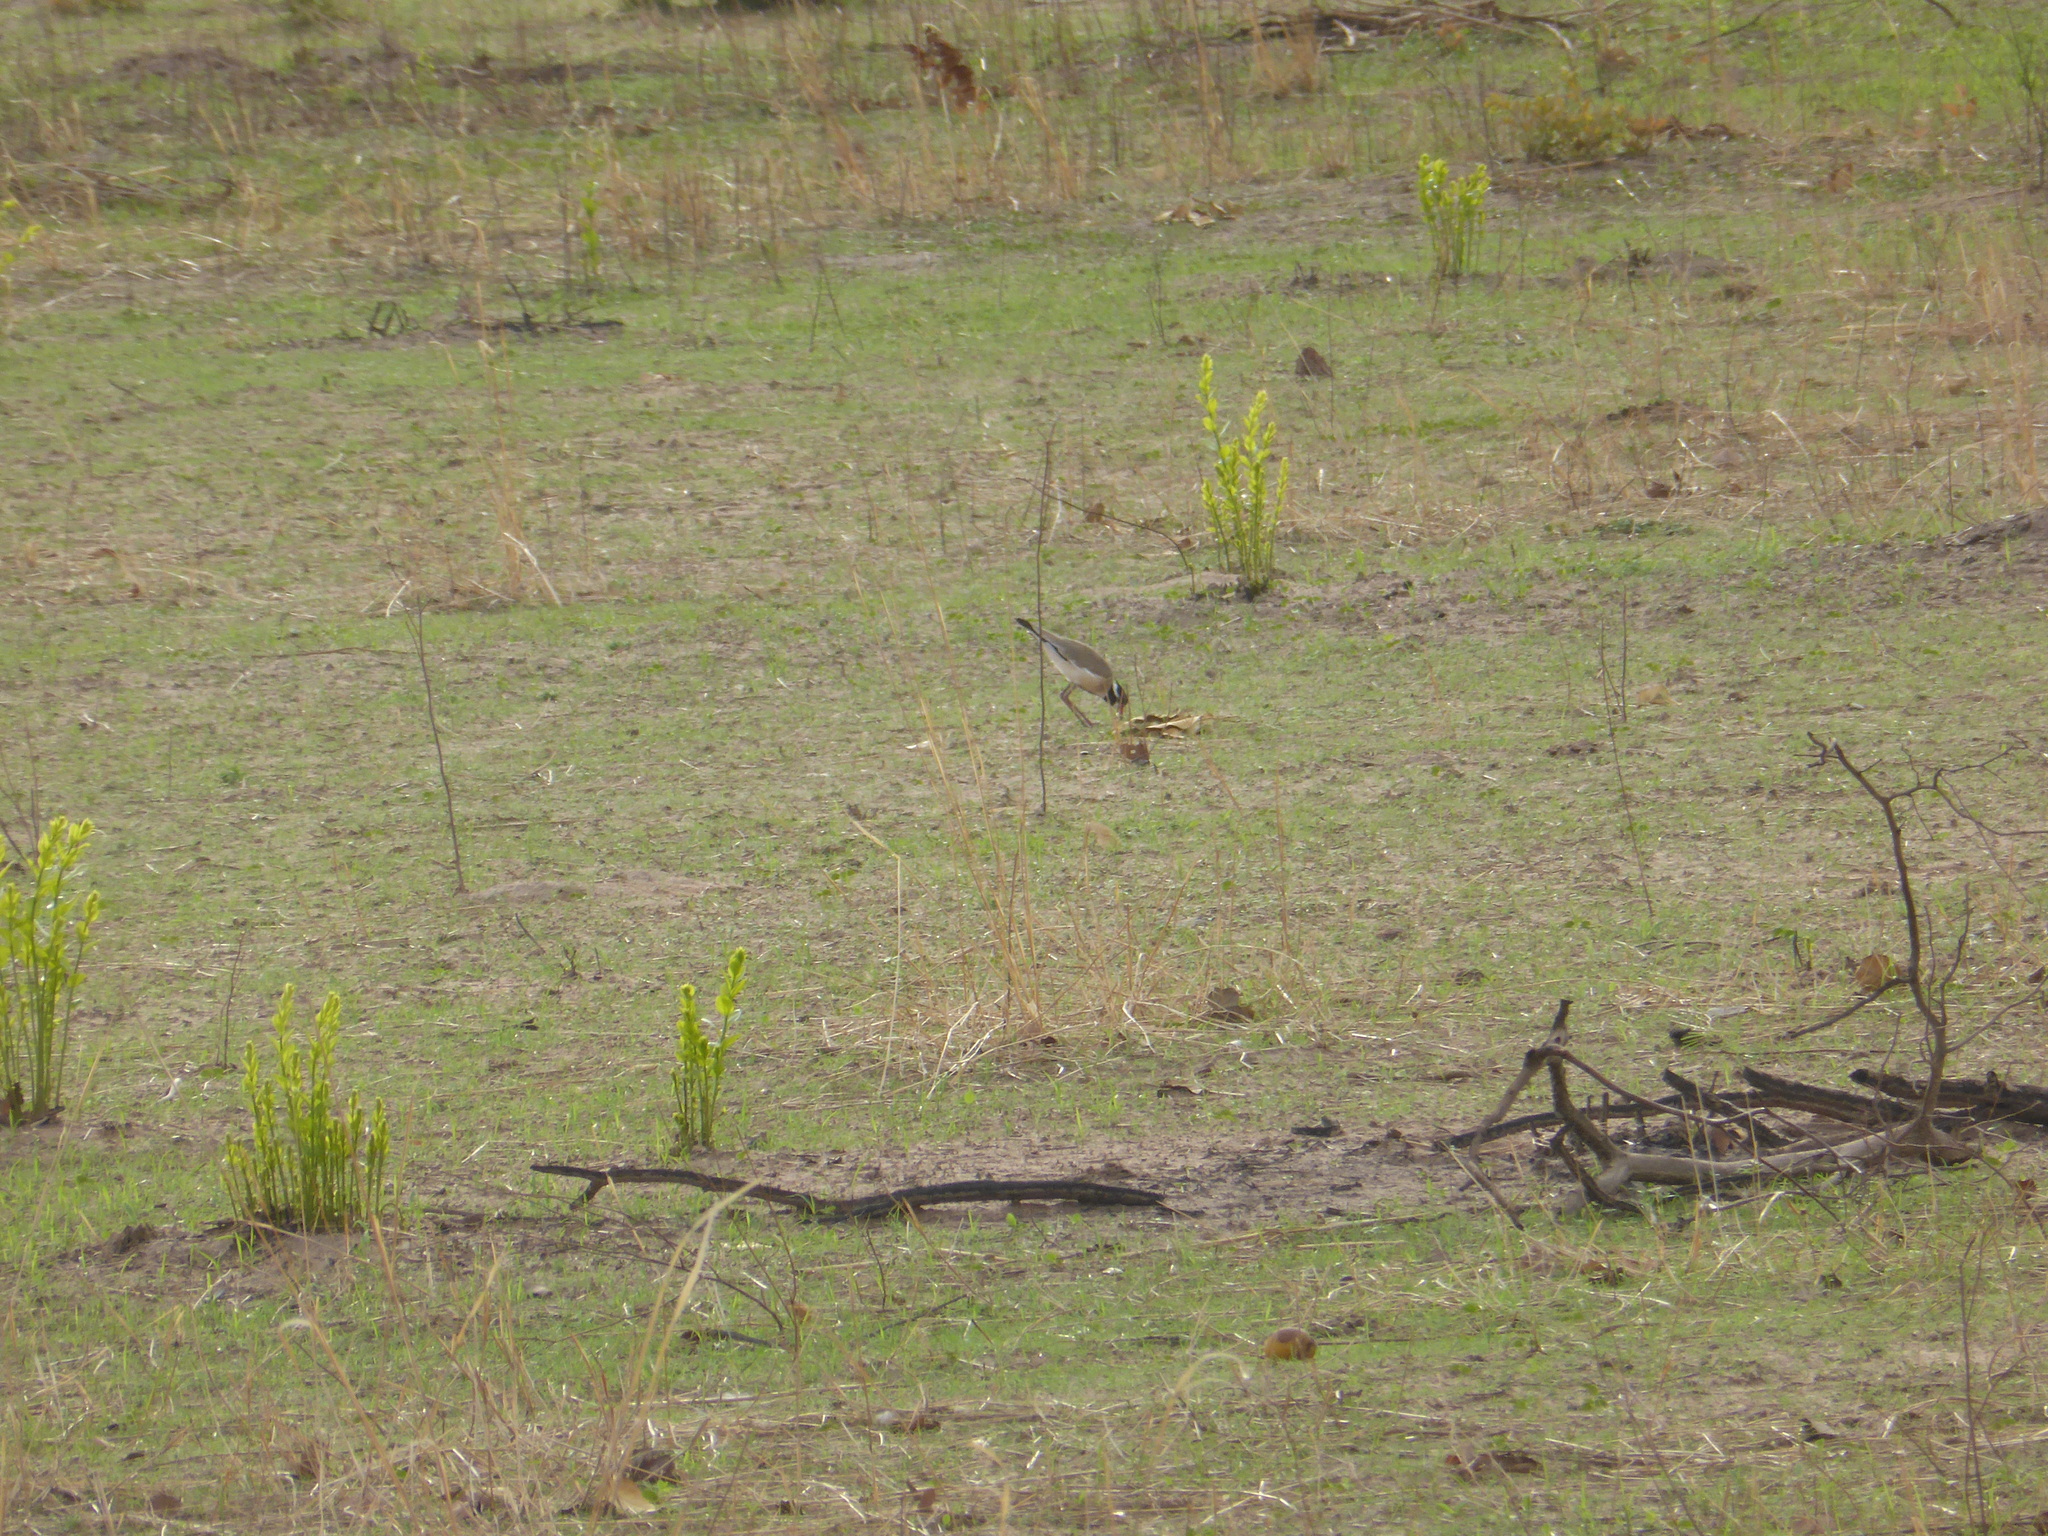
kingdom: Animalia
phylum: Chordata
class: Aves
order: Charadriiformes
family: Charadriidae
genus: Vanellus
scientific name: Vanellus tectus
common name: Black-headed lapwing
